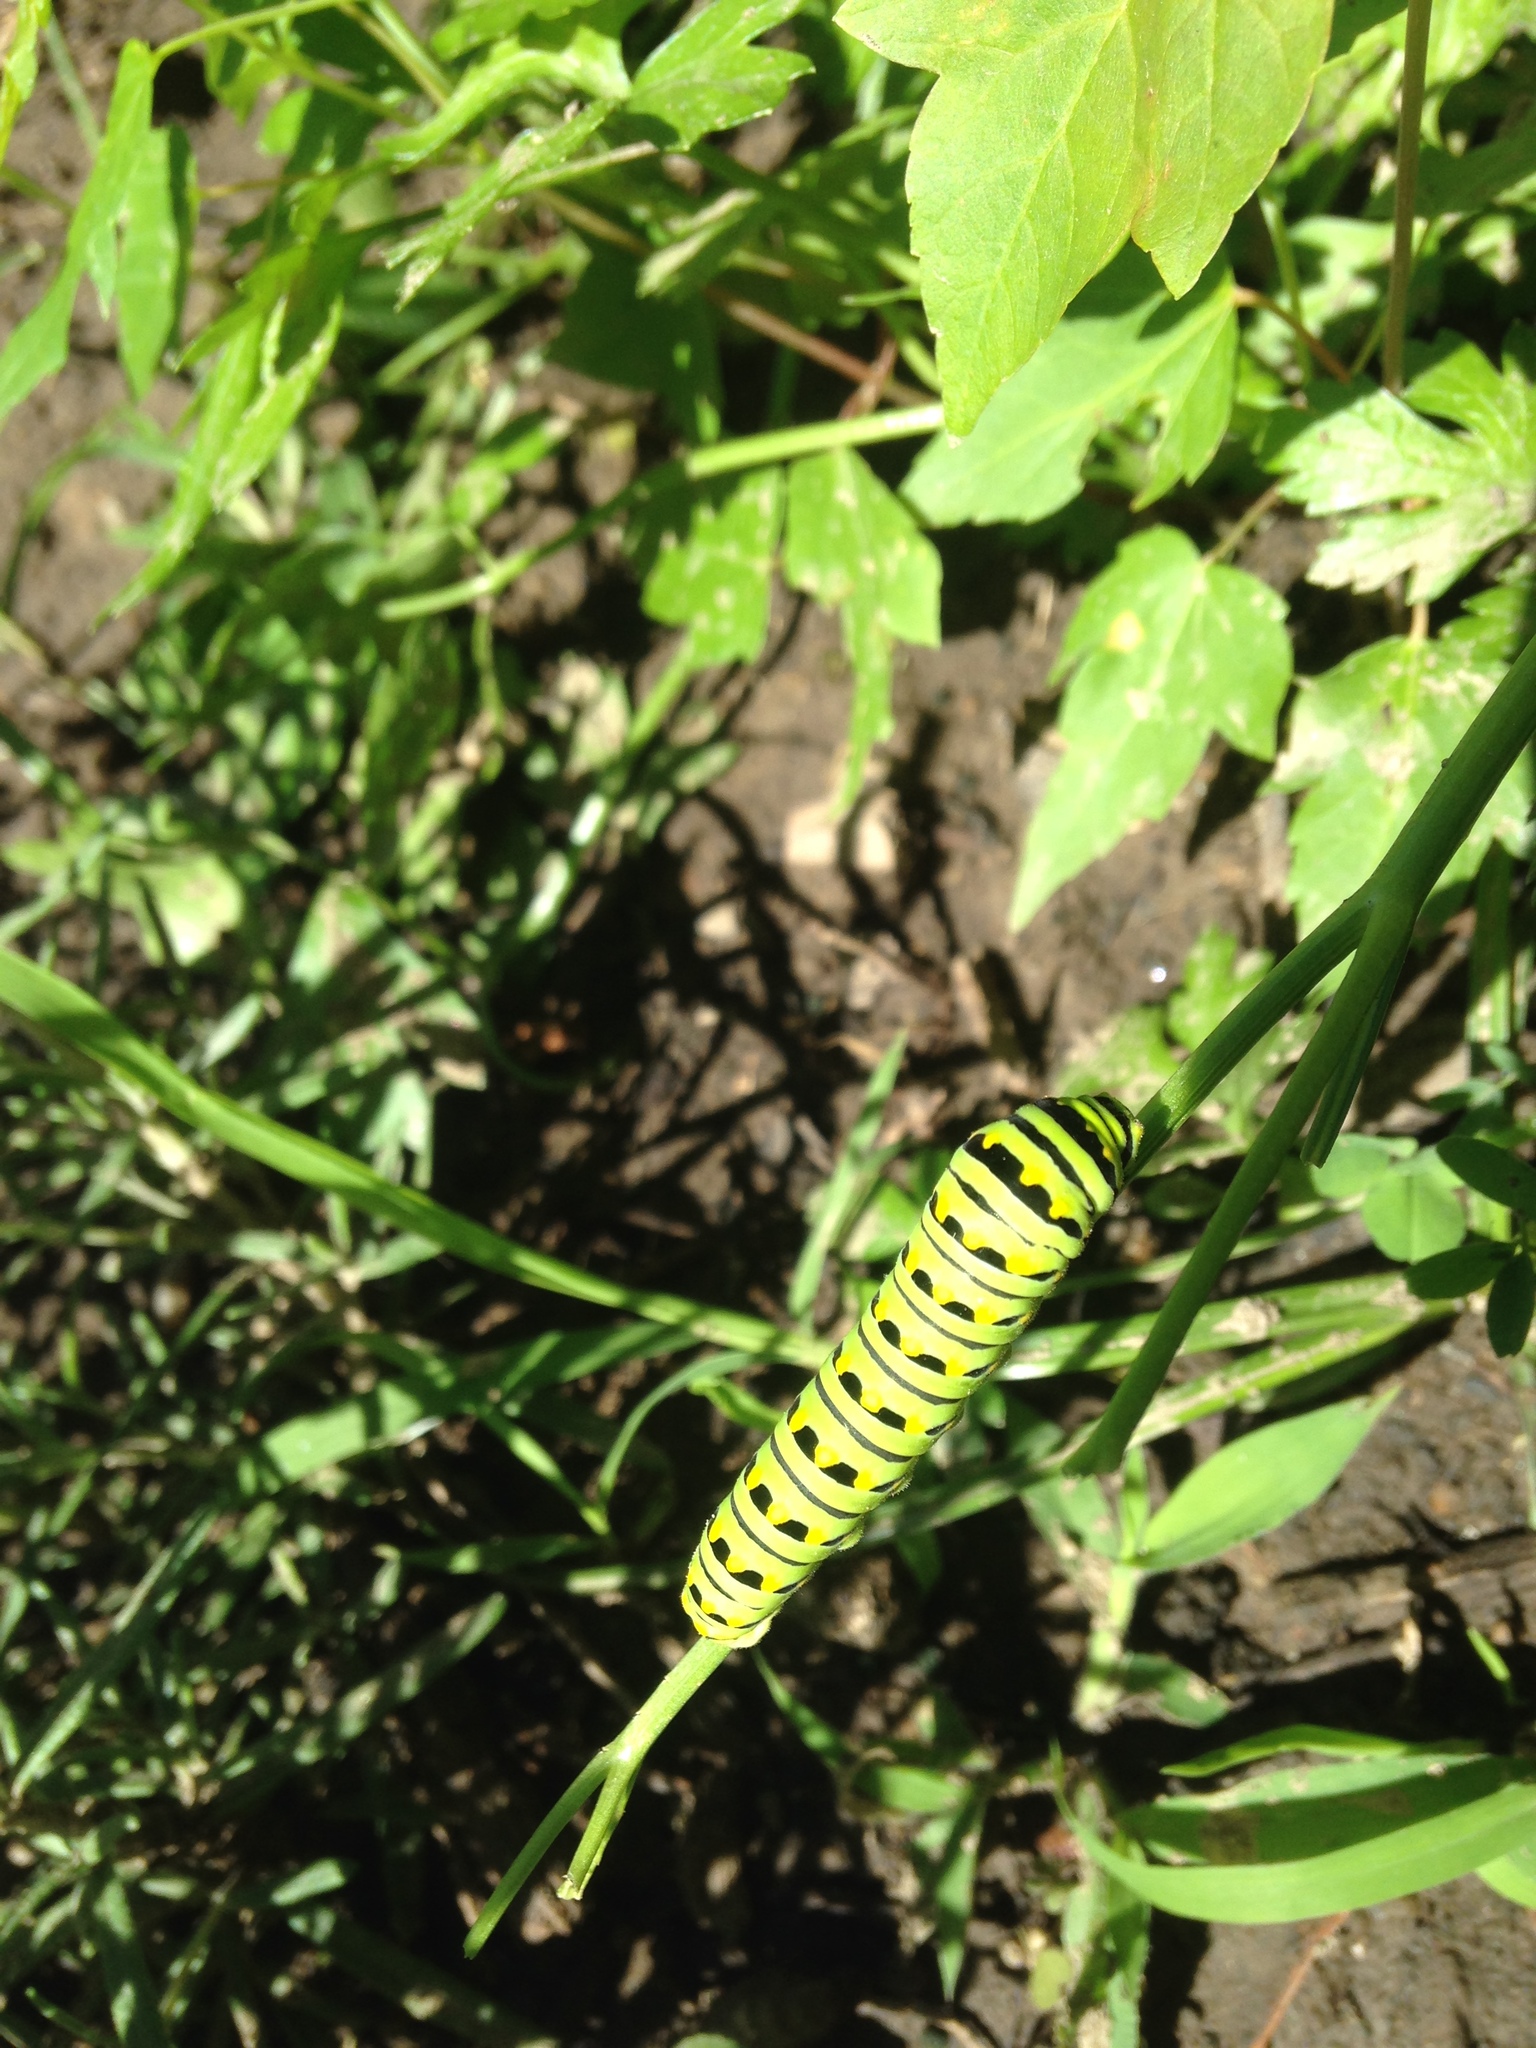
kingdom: Animalia
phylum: Arthropoda
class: Insecta
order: Lepidoptera
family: Papilionidae
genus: Papilio
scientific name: Papilio polyxenes
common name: Black swallowtail
